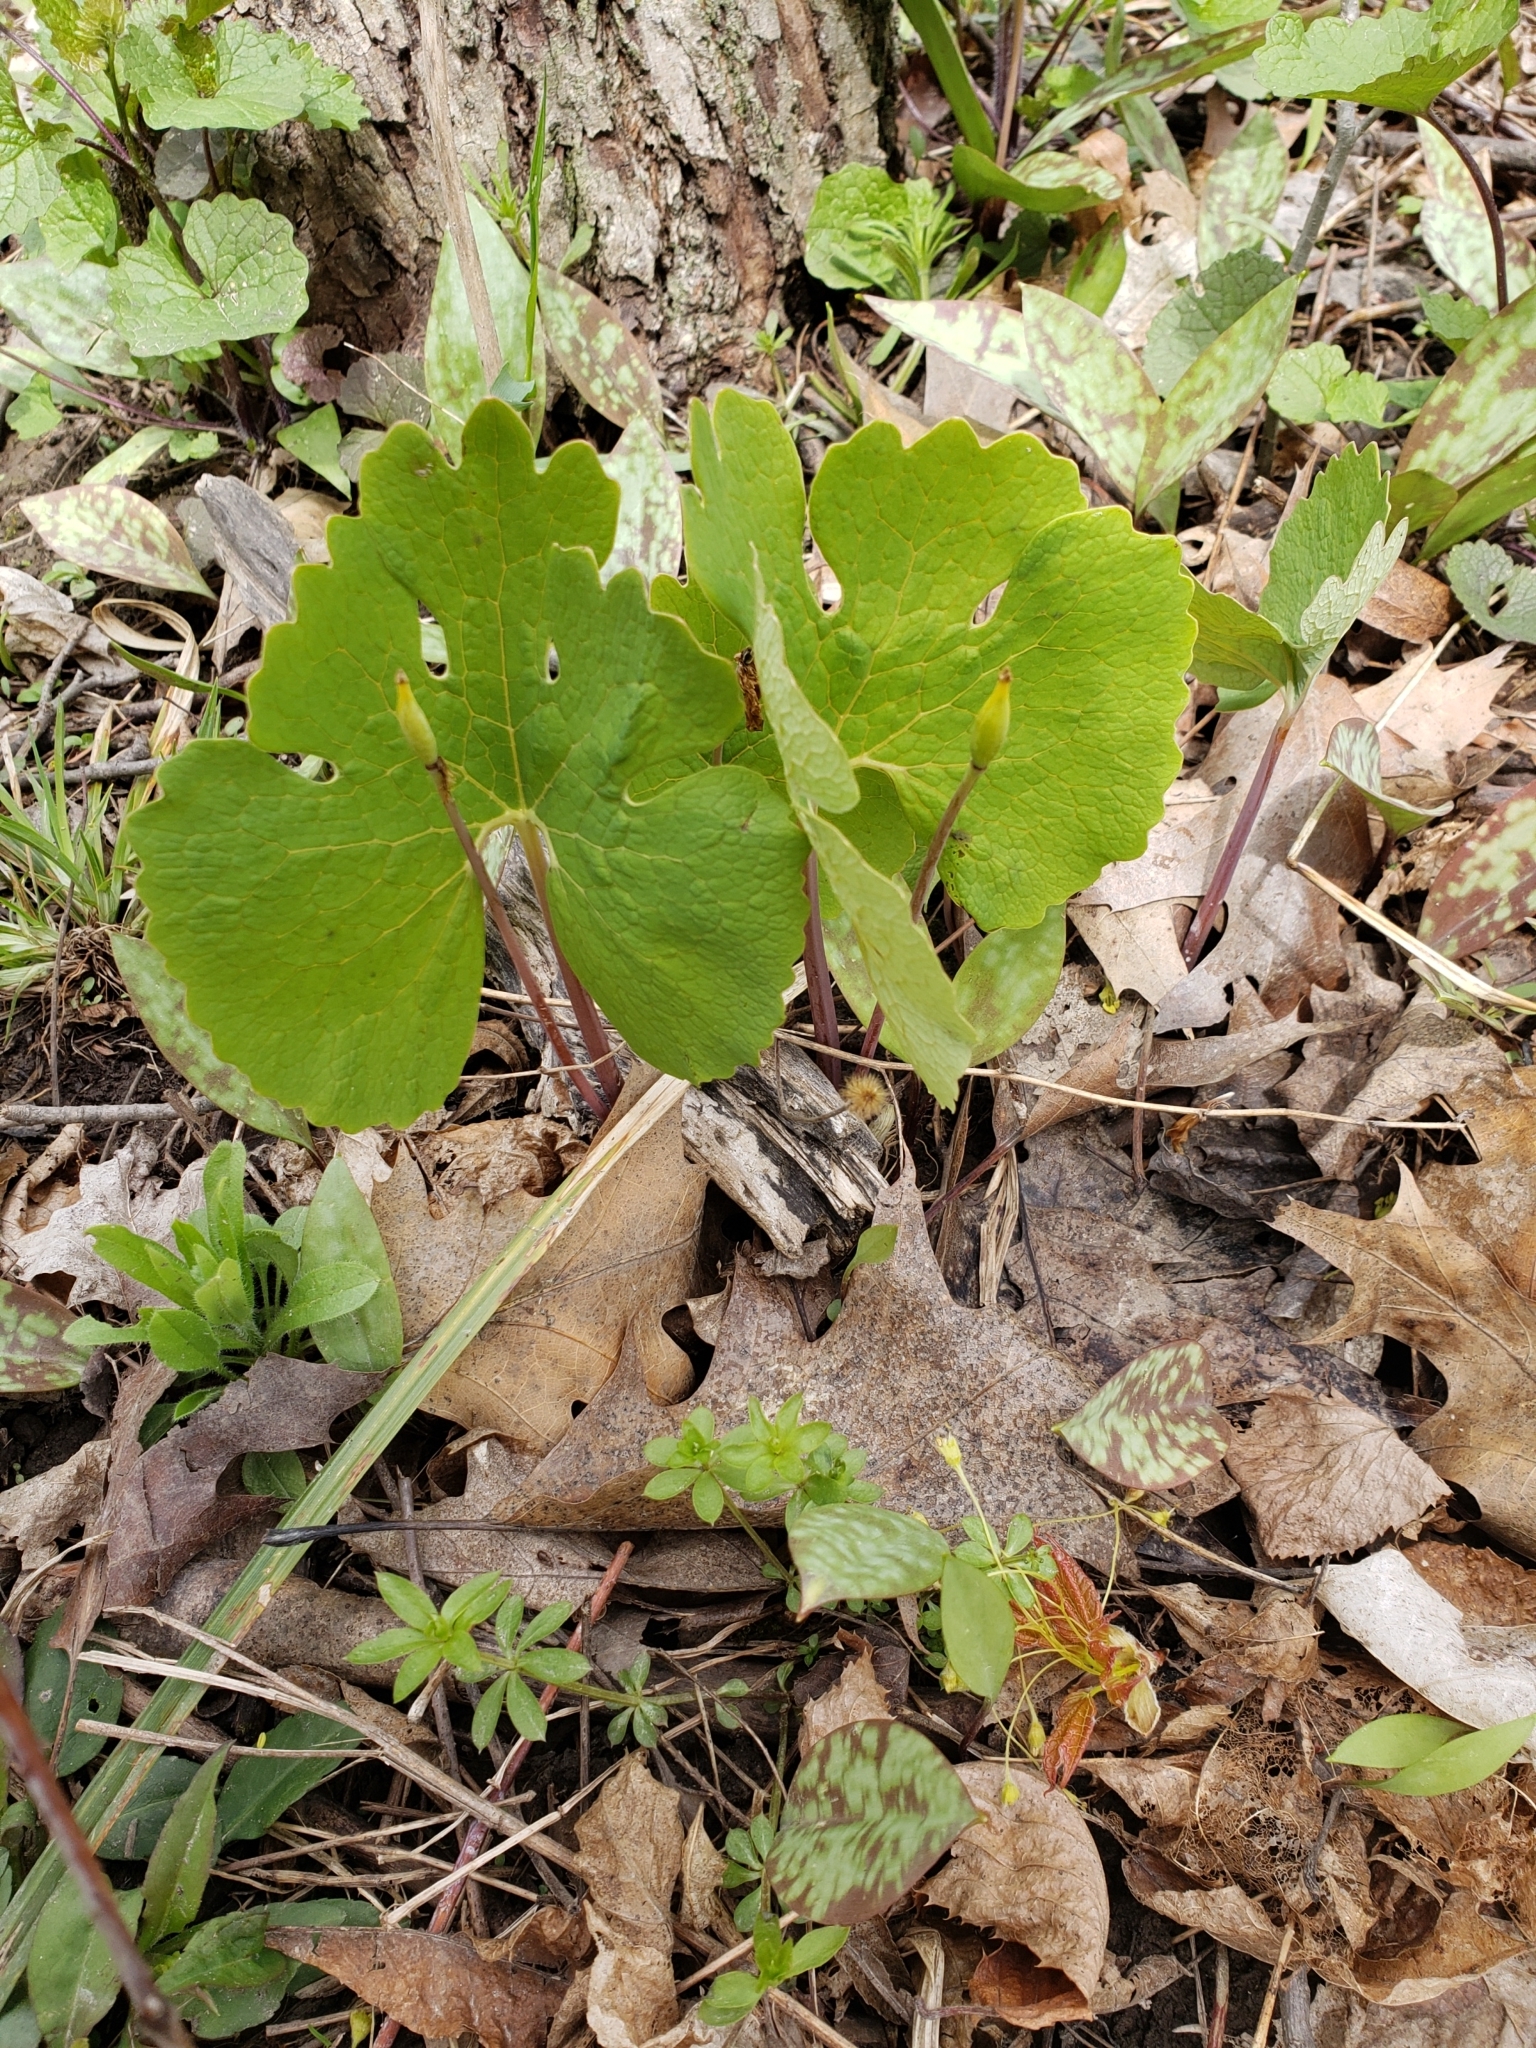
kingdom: Plantae
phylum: Tracheophyta
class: Magnoliopsida
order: Ranunculales
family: Papaveraceae
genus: Sanguinaria
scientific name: Sanguinaria canadensis
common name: Bloodroot
